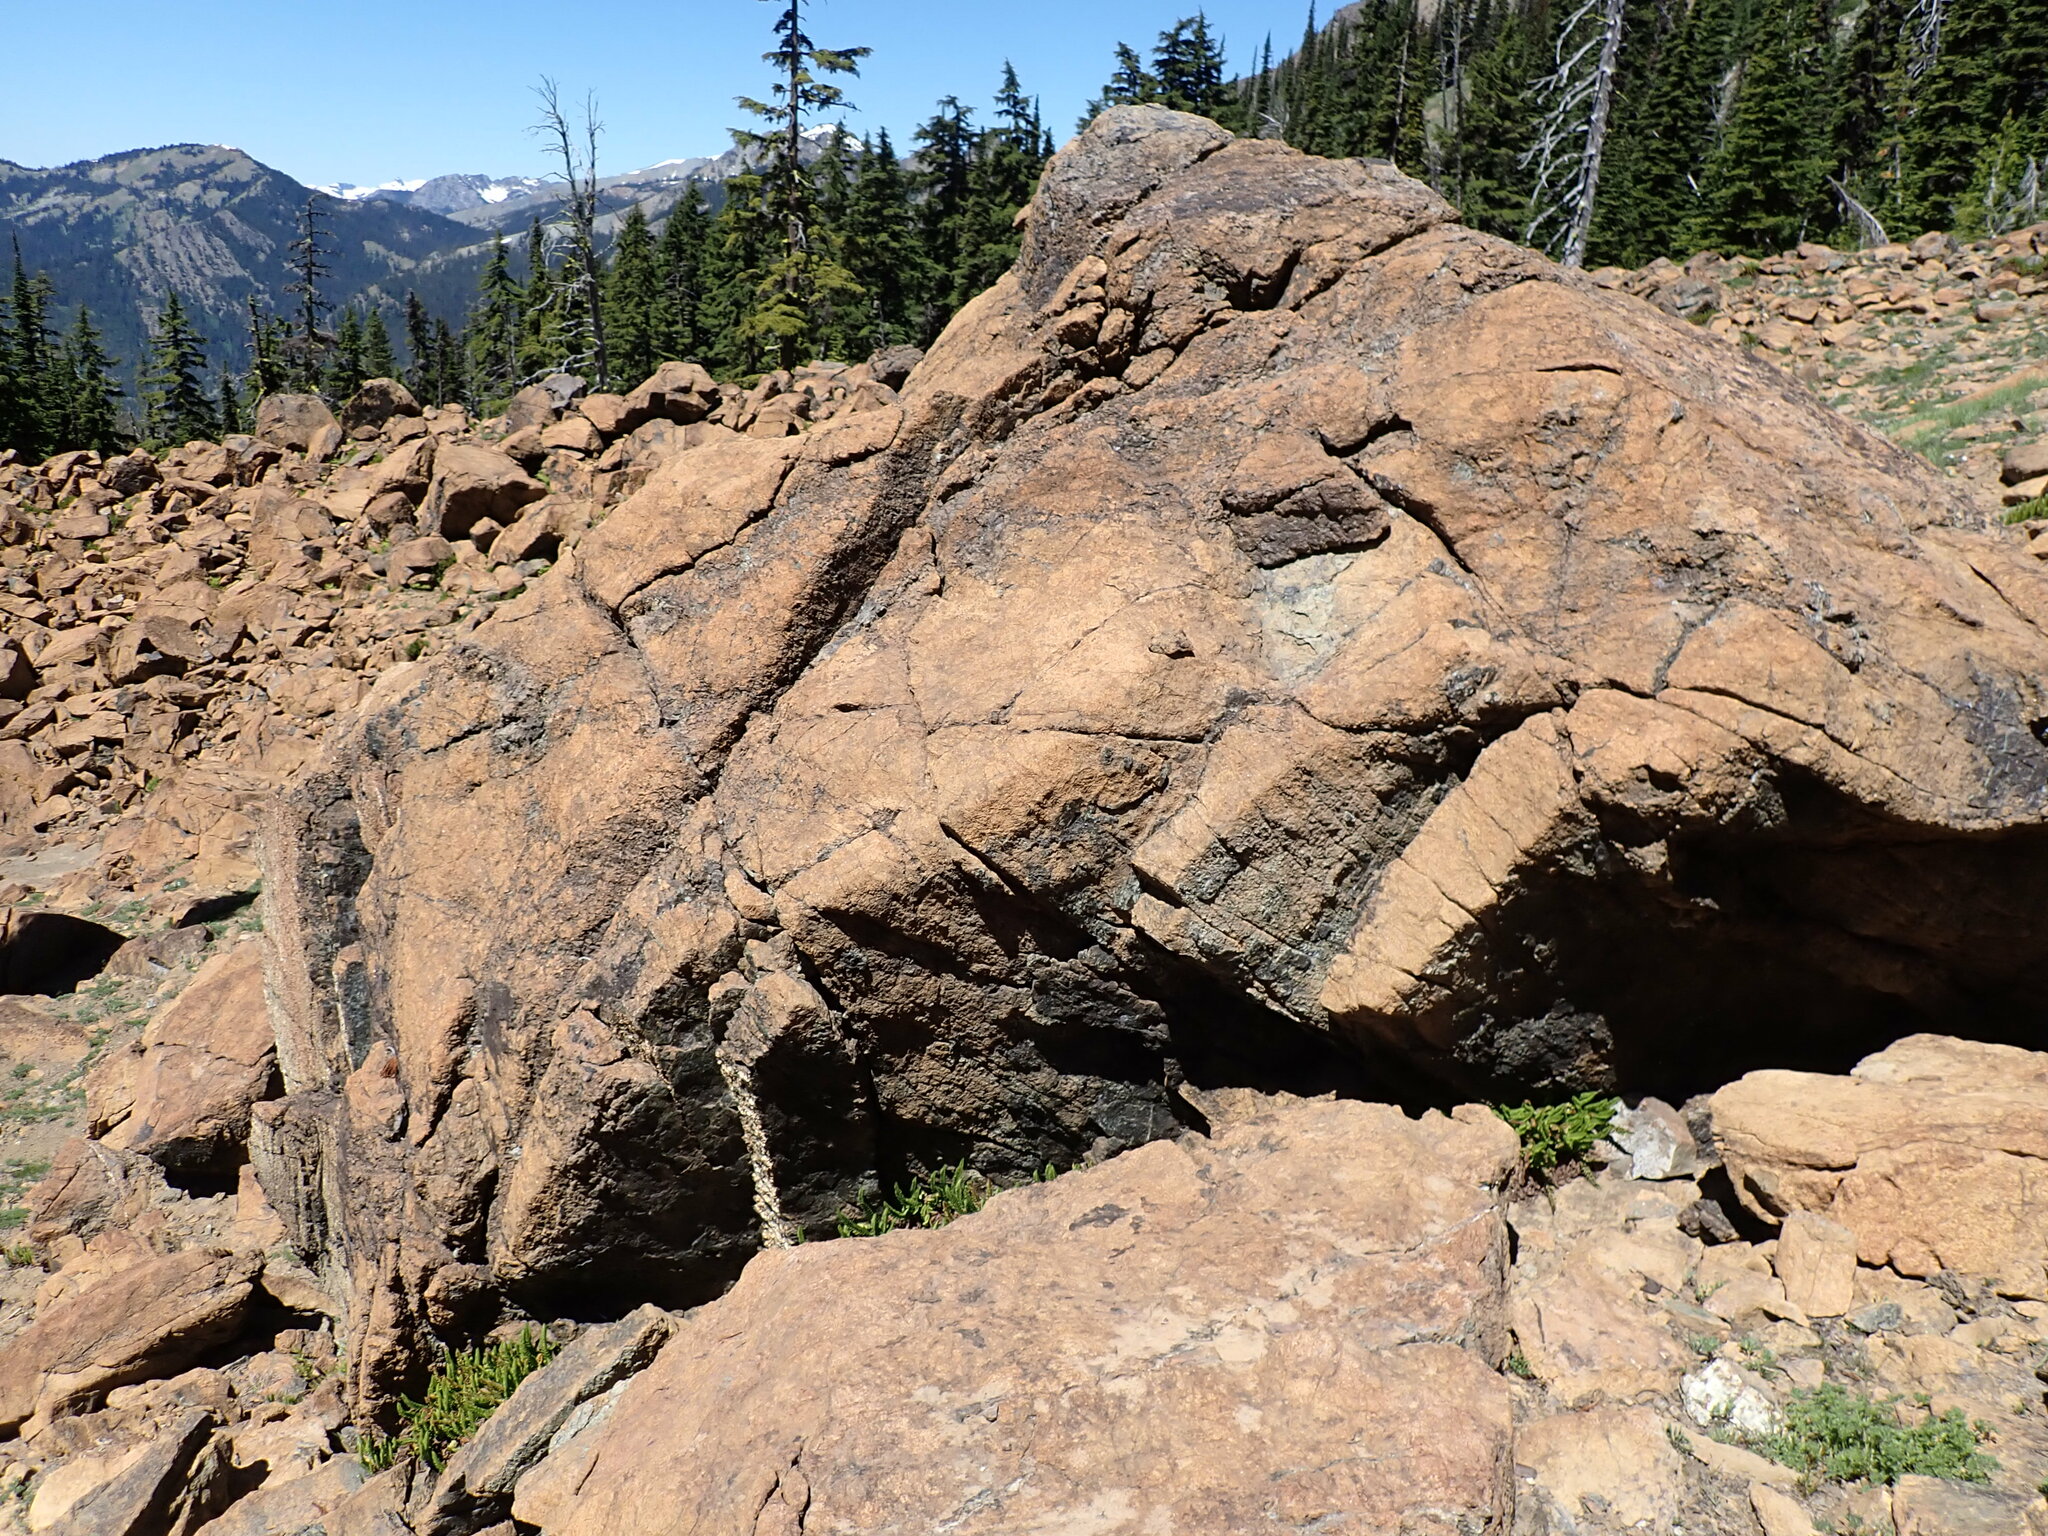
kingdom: Plantae
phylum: Tracheophyta
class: Polypodiopsida
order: Polypodiales
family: Dryopteridaceae
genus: Polystichum
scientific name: Polystichum lemmonii
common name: Lemmon's holly fern
